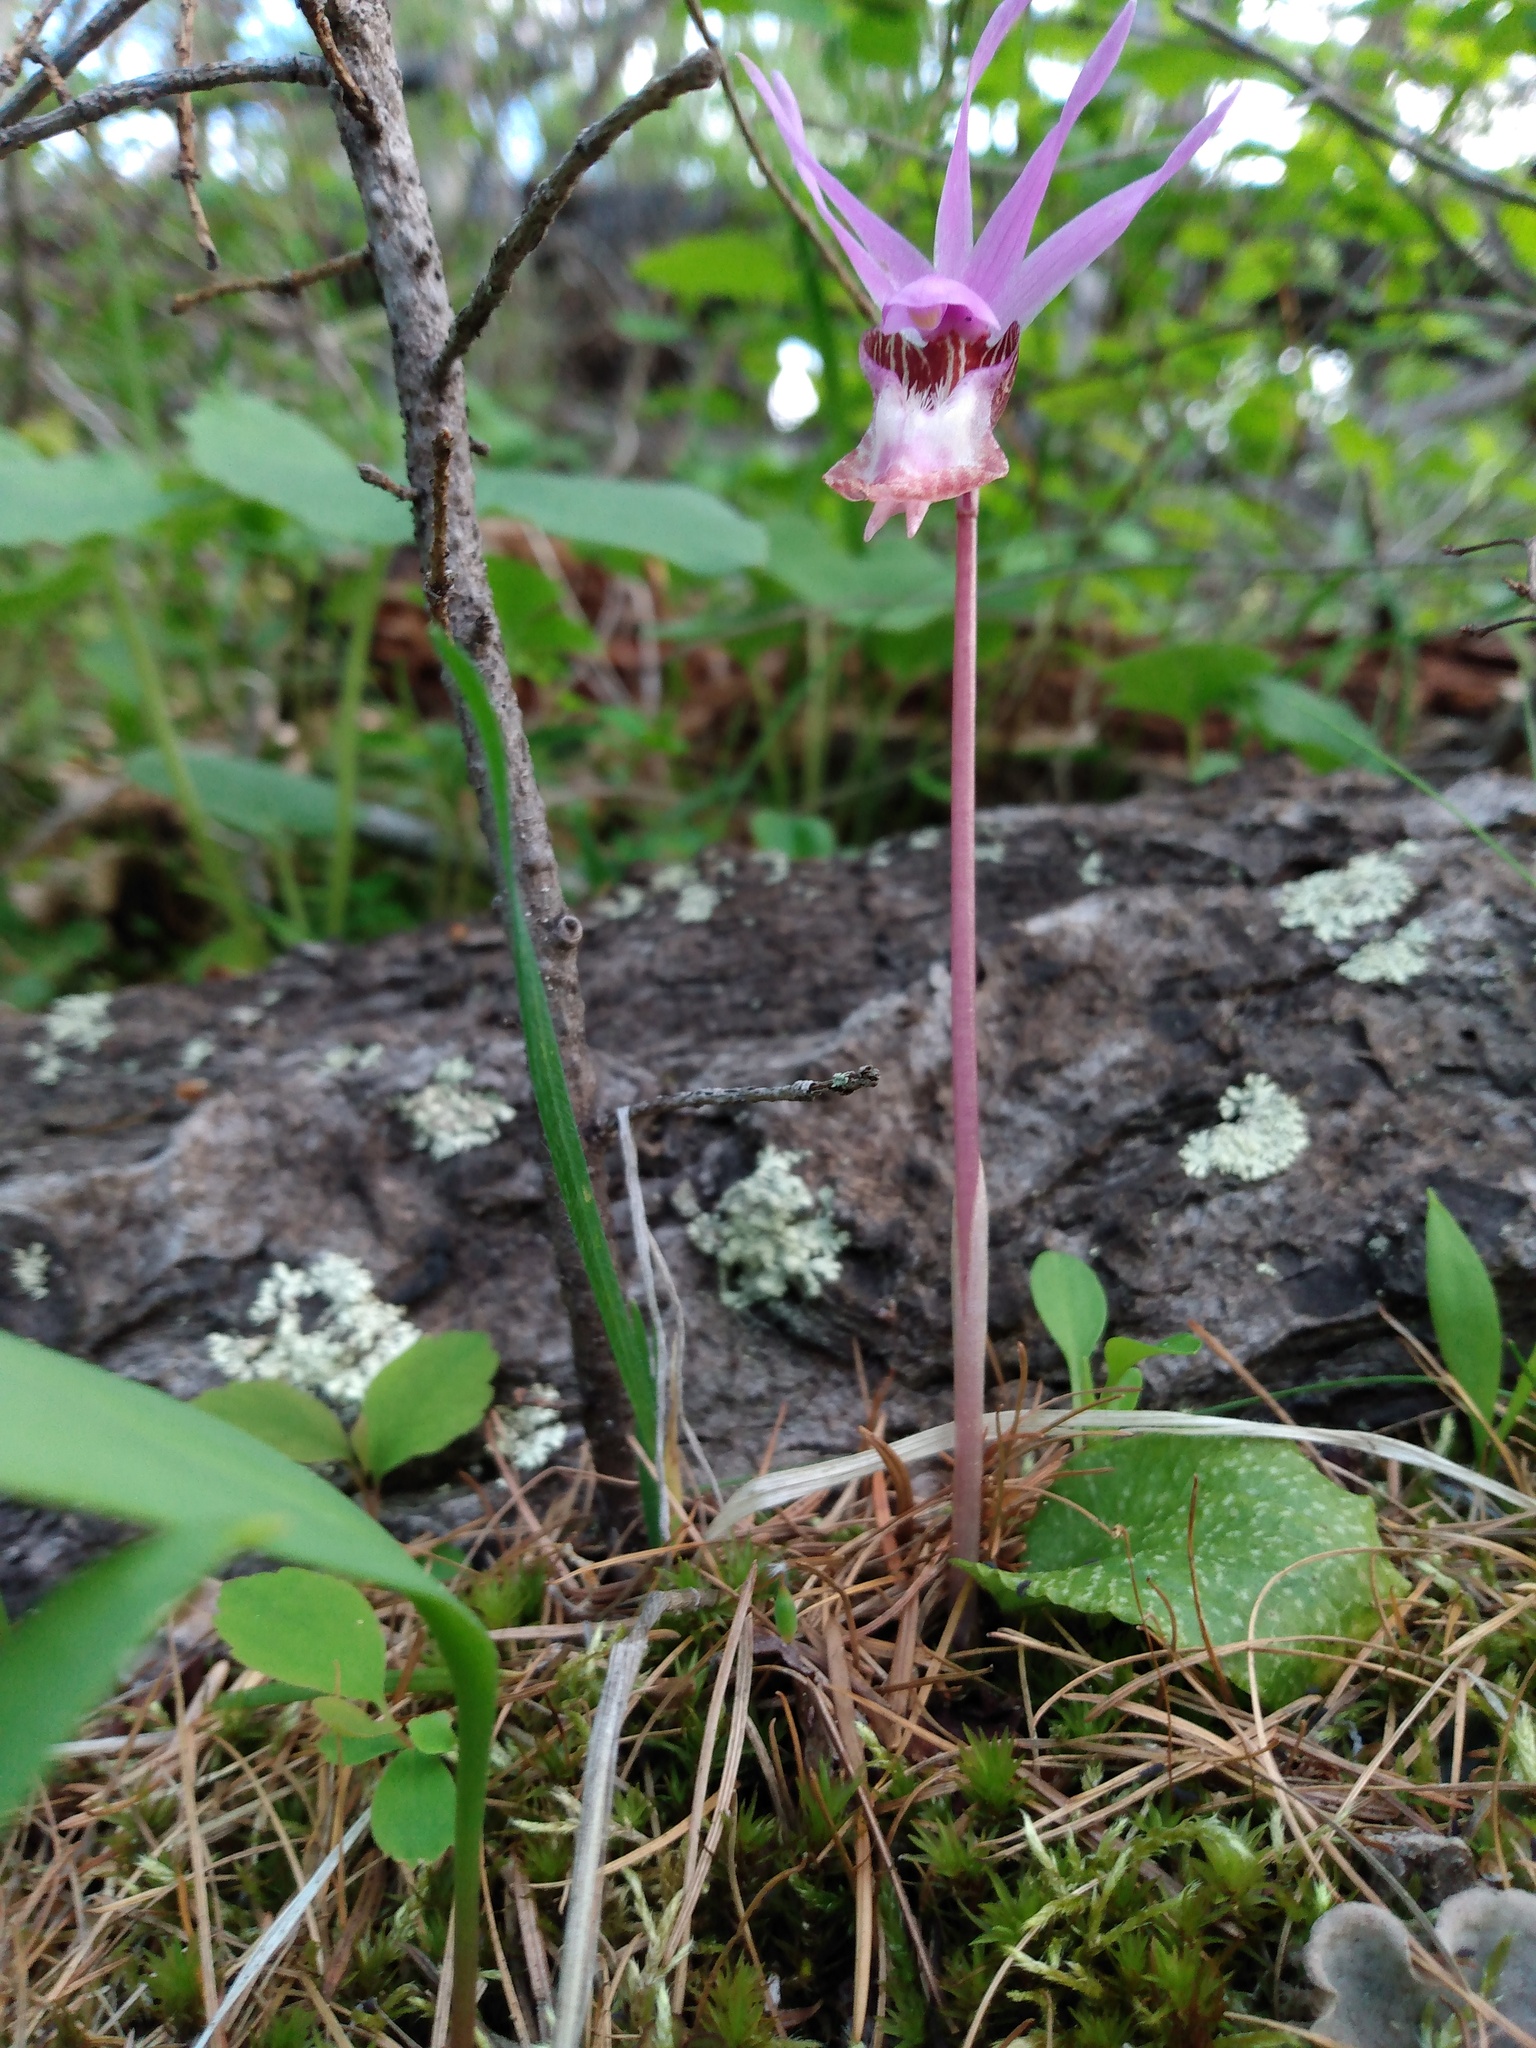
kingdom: Plantae
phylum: Tracheophyta
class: Liliopsida
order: Asparagales
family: Orchidaceae
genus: Calypso
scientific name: Calypso bulbosa
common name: Calypso
